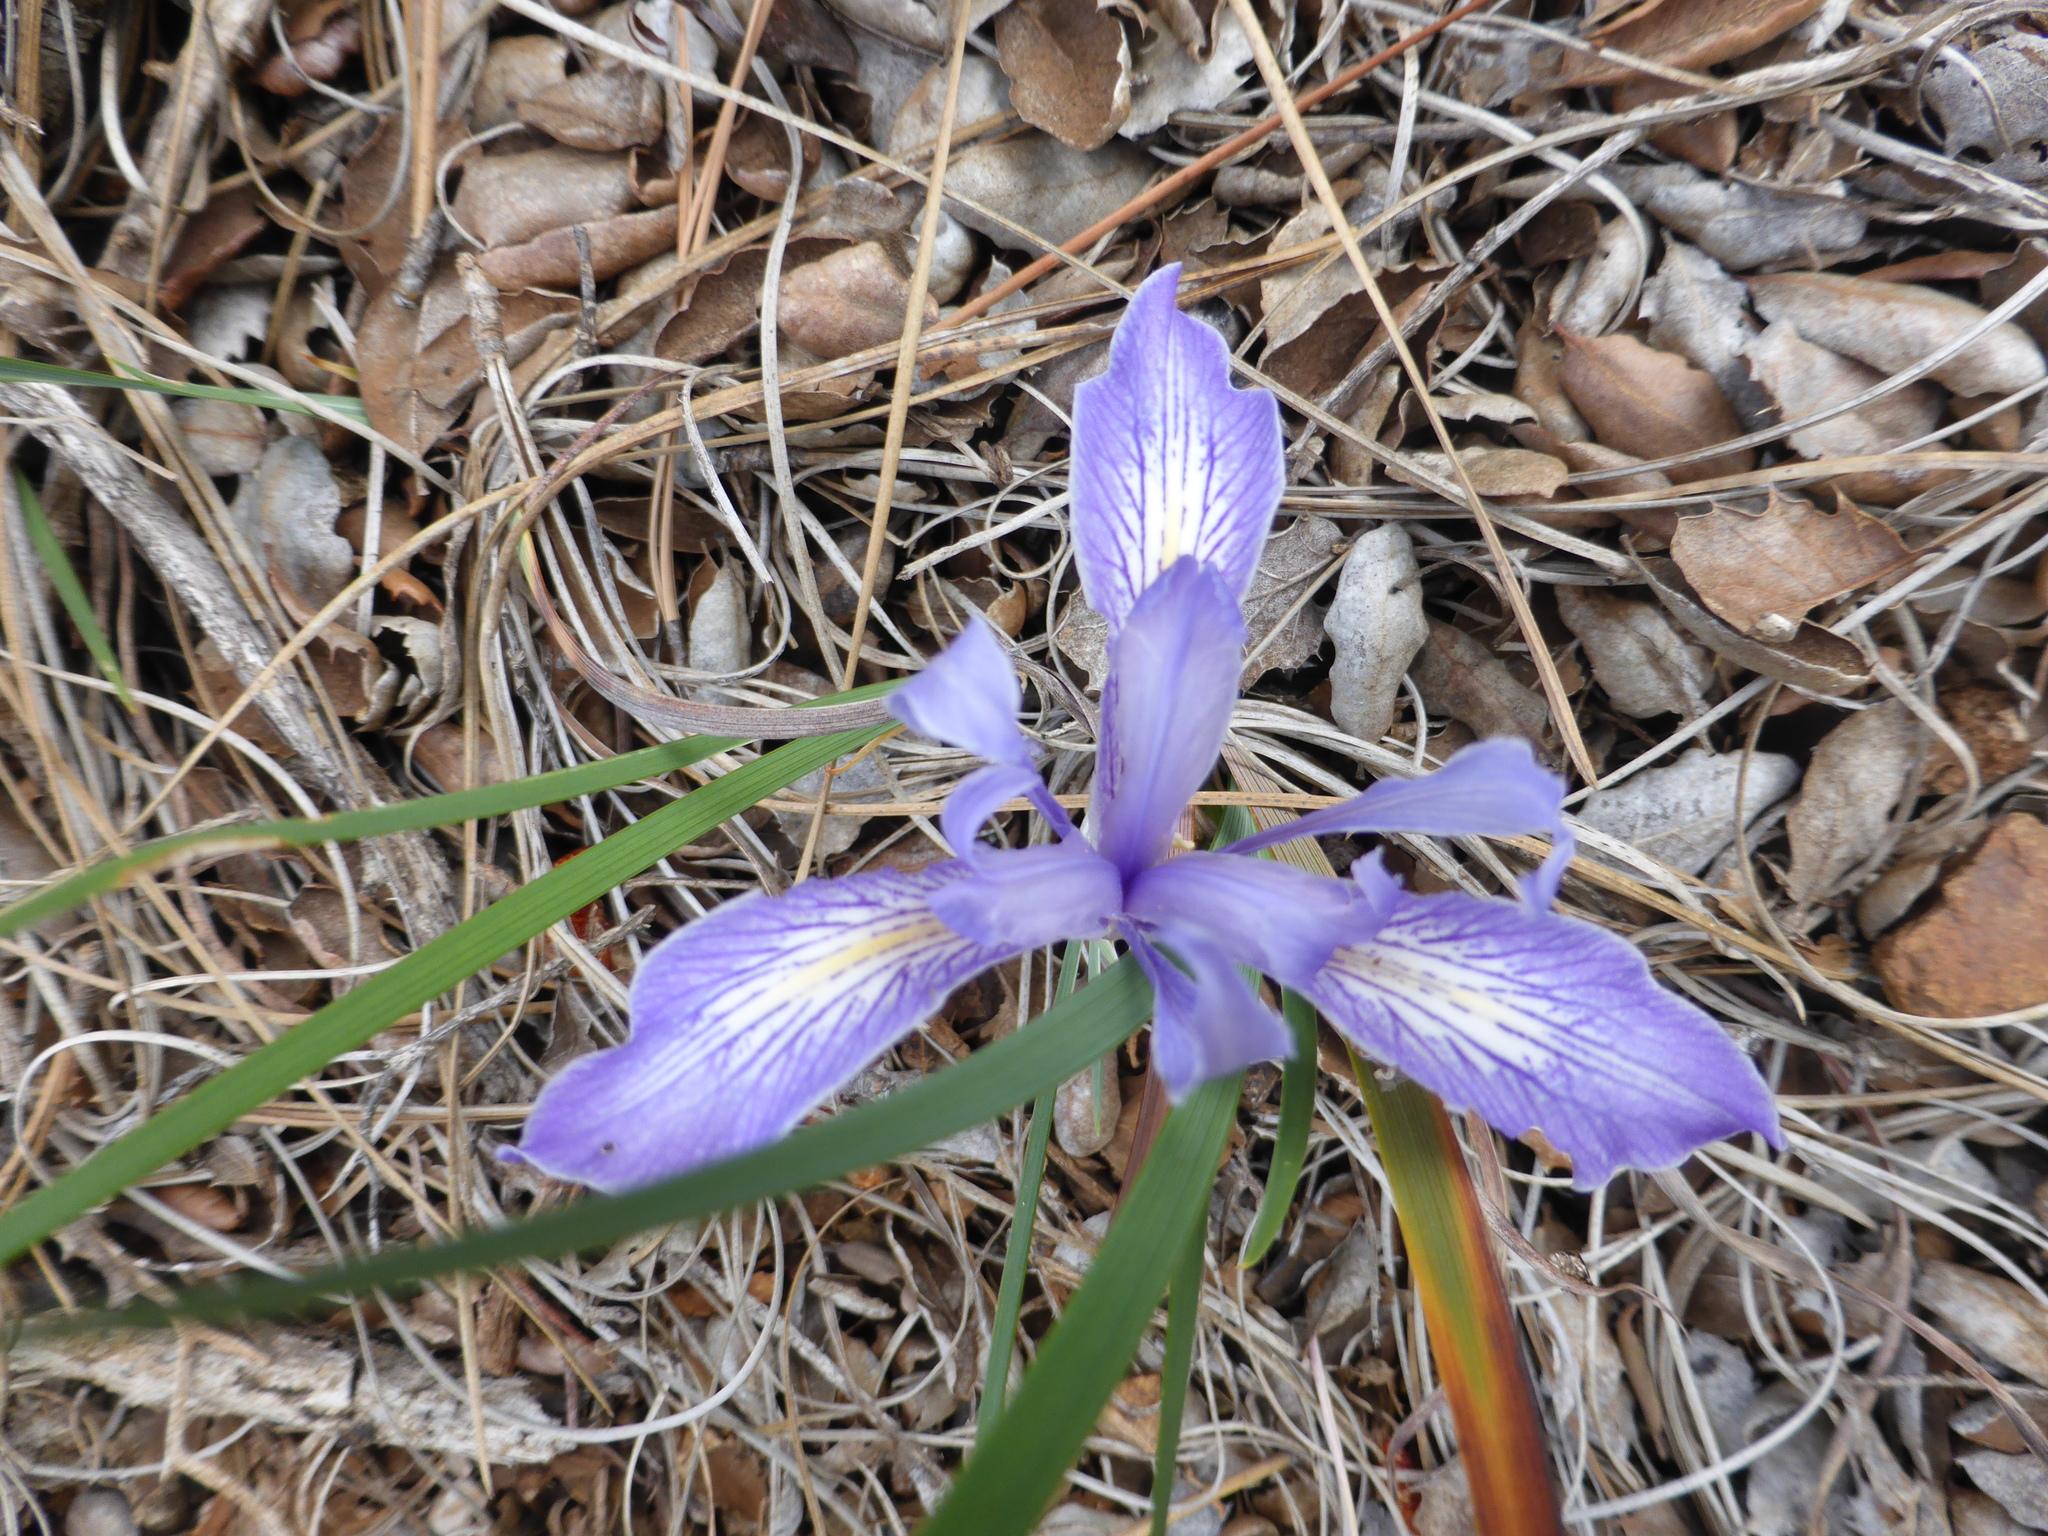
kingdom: Plantae
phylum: Tracheophyta
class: Liliopsida
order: Asparagales
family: Iridaceae
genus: Iris
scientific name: Iris macrosiphon
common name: Ground iris
